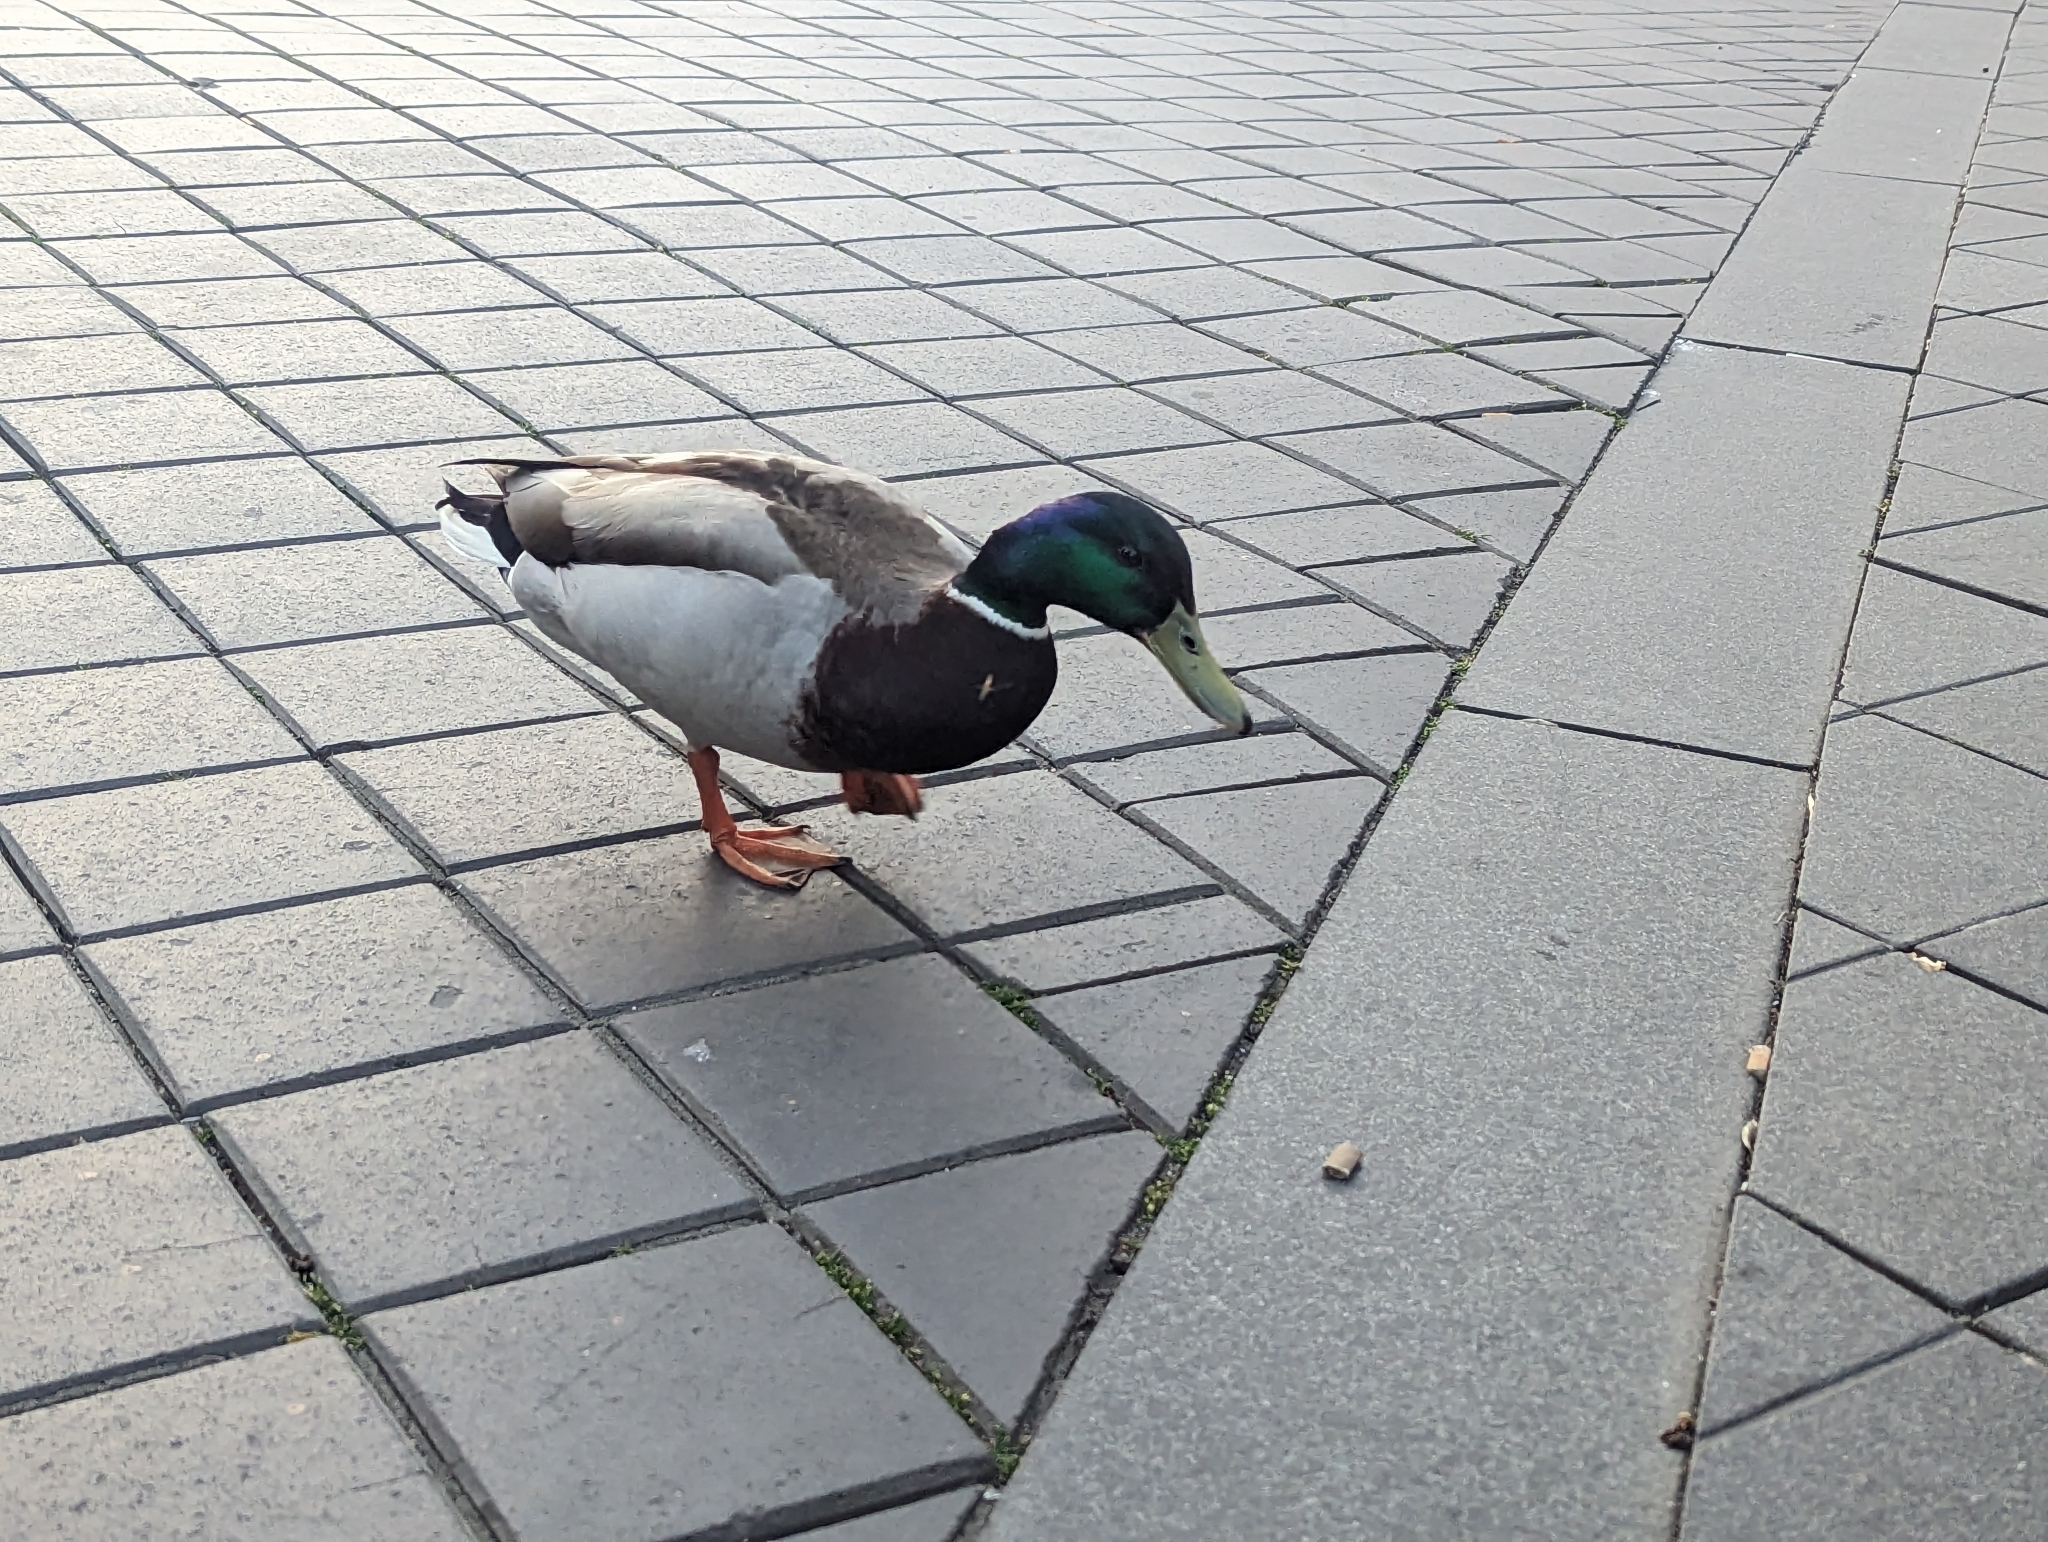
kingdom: Animalia
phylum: Chordata
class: Aves
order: Anseriformes
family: Anatidae
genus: Anas
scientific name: Anas platyrhynchos
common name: Mallard
